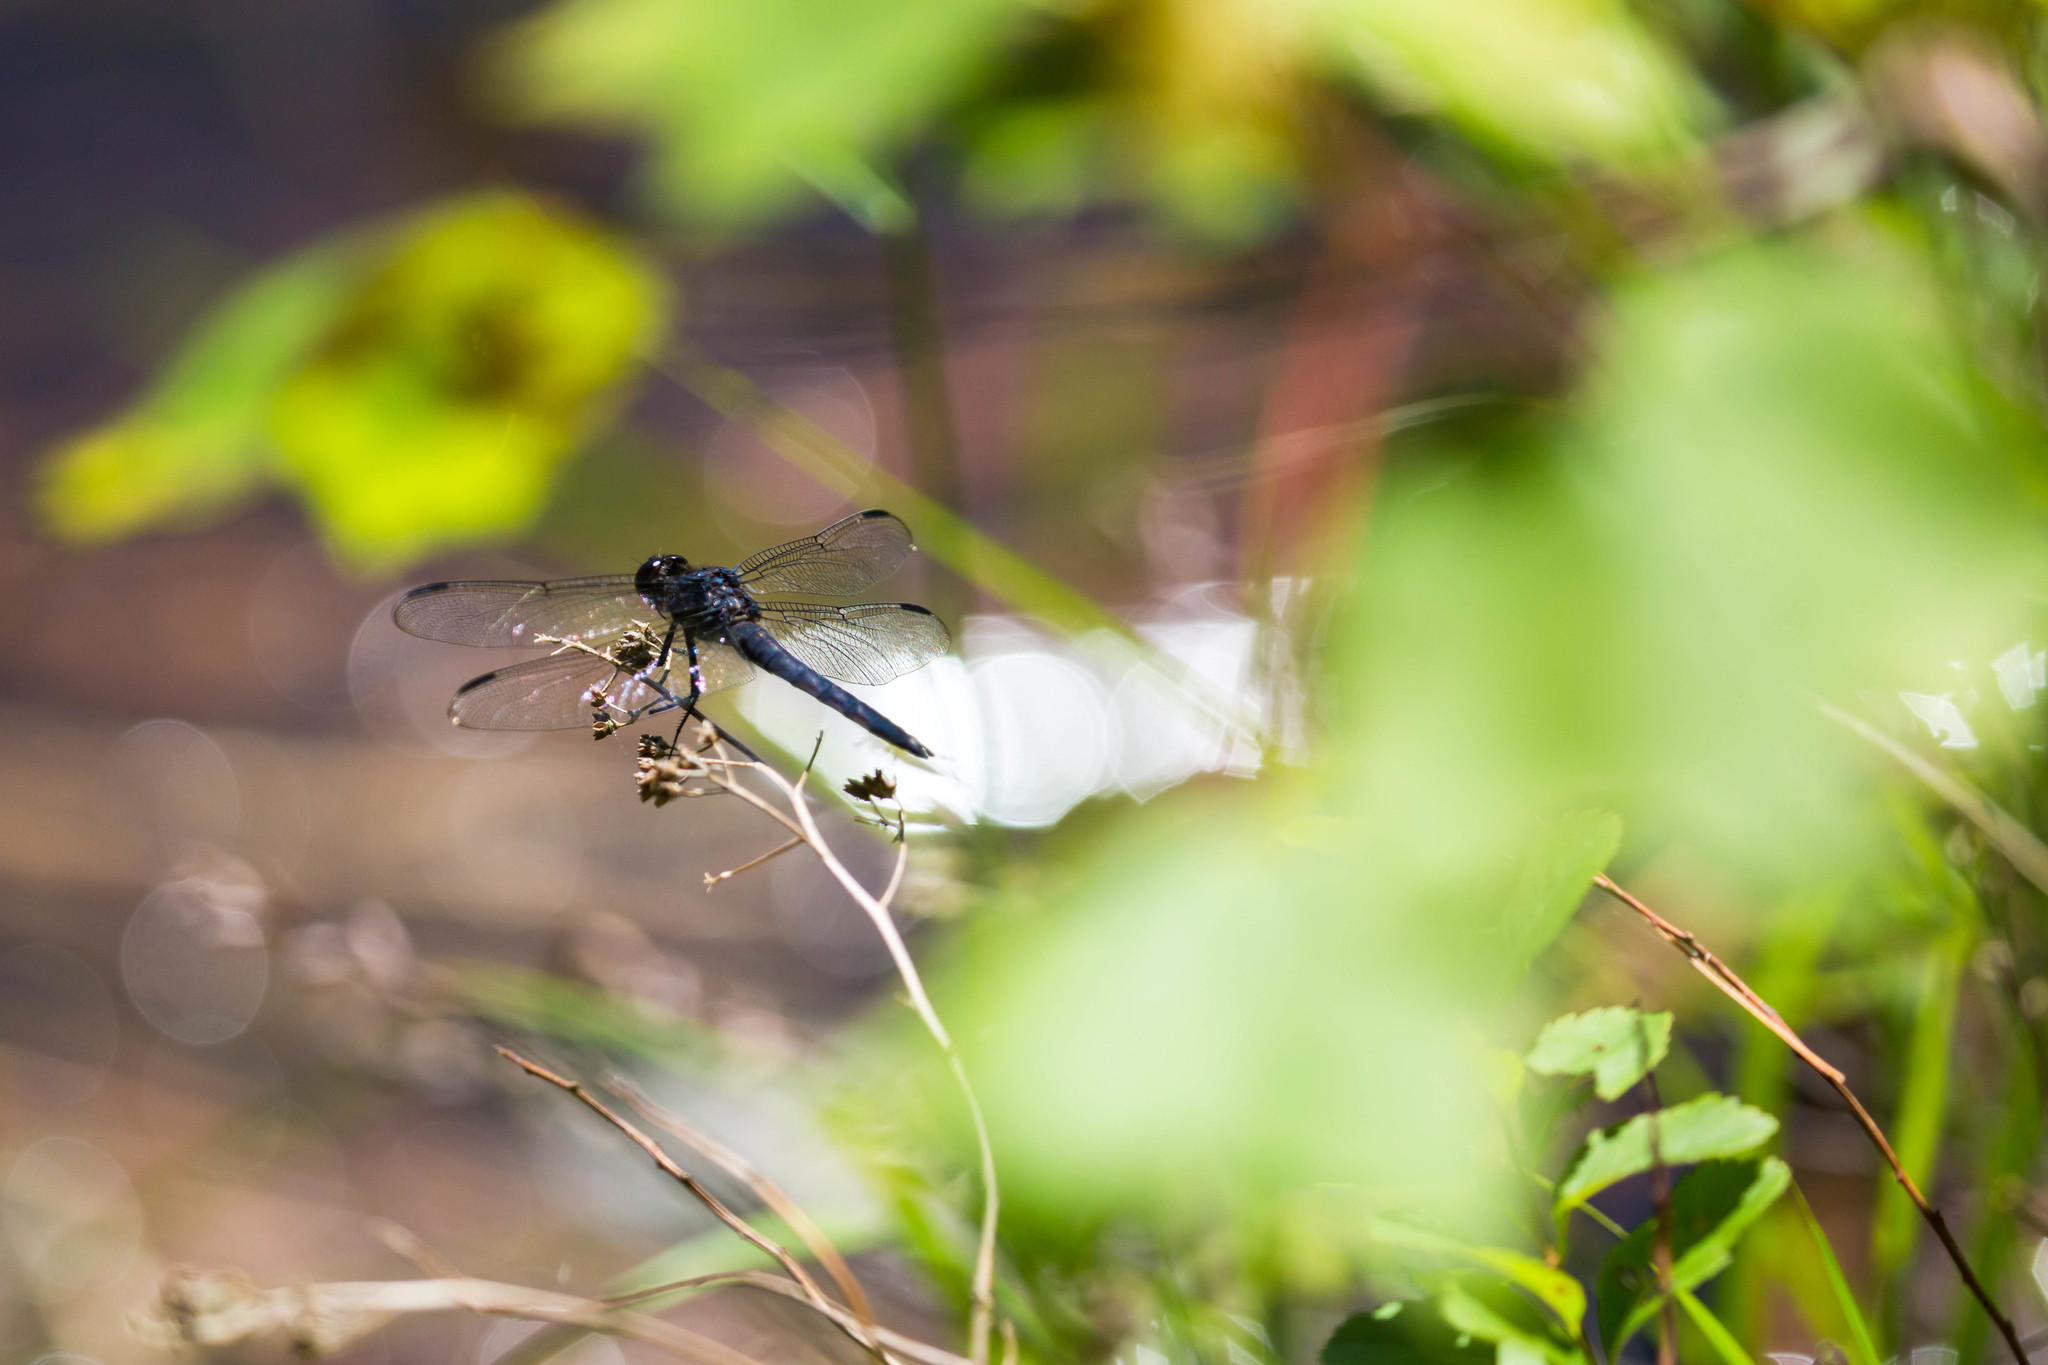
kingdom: Animalia
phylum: Arthropoda
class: Insecta
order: Odonata
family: Libellulidae
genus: Libellula
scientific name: Libellula incesta
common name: Slaty skimmer
